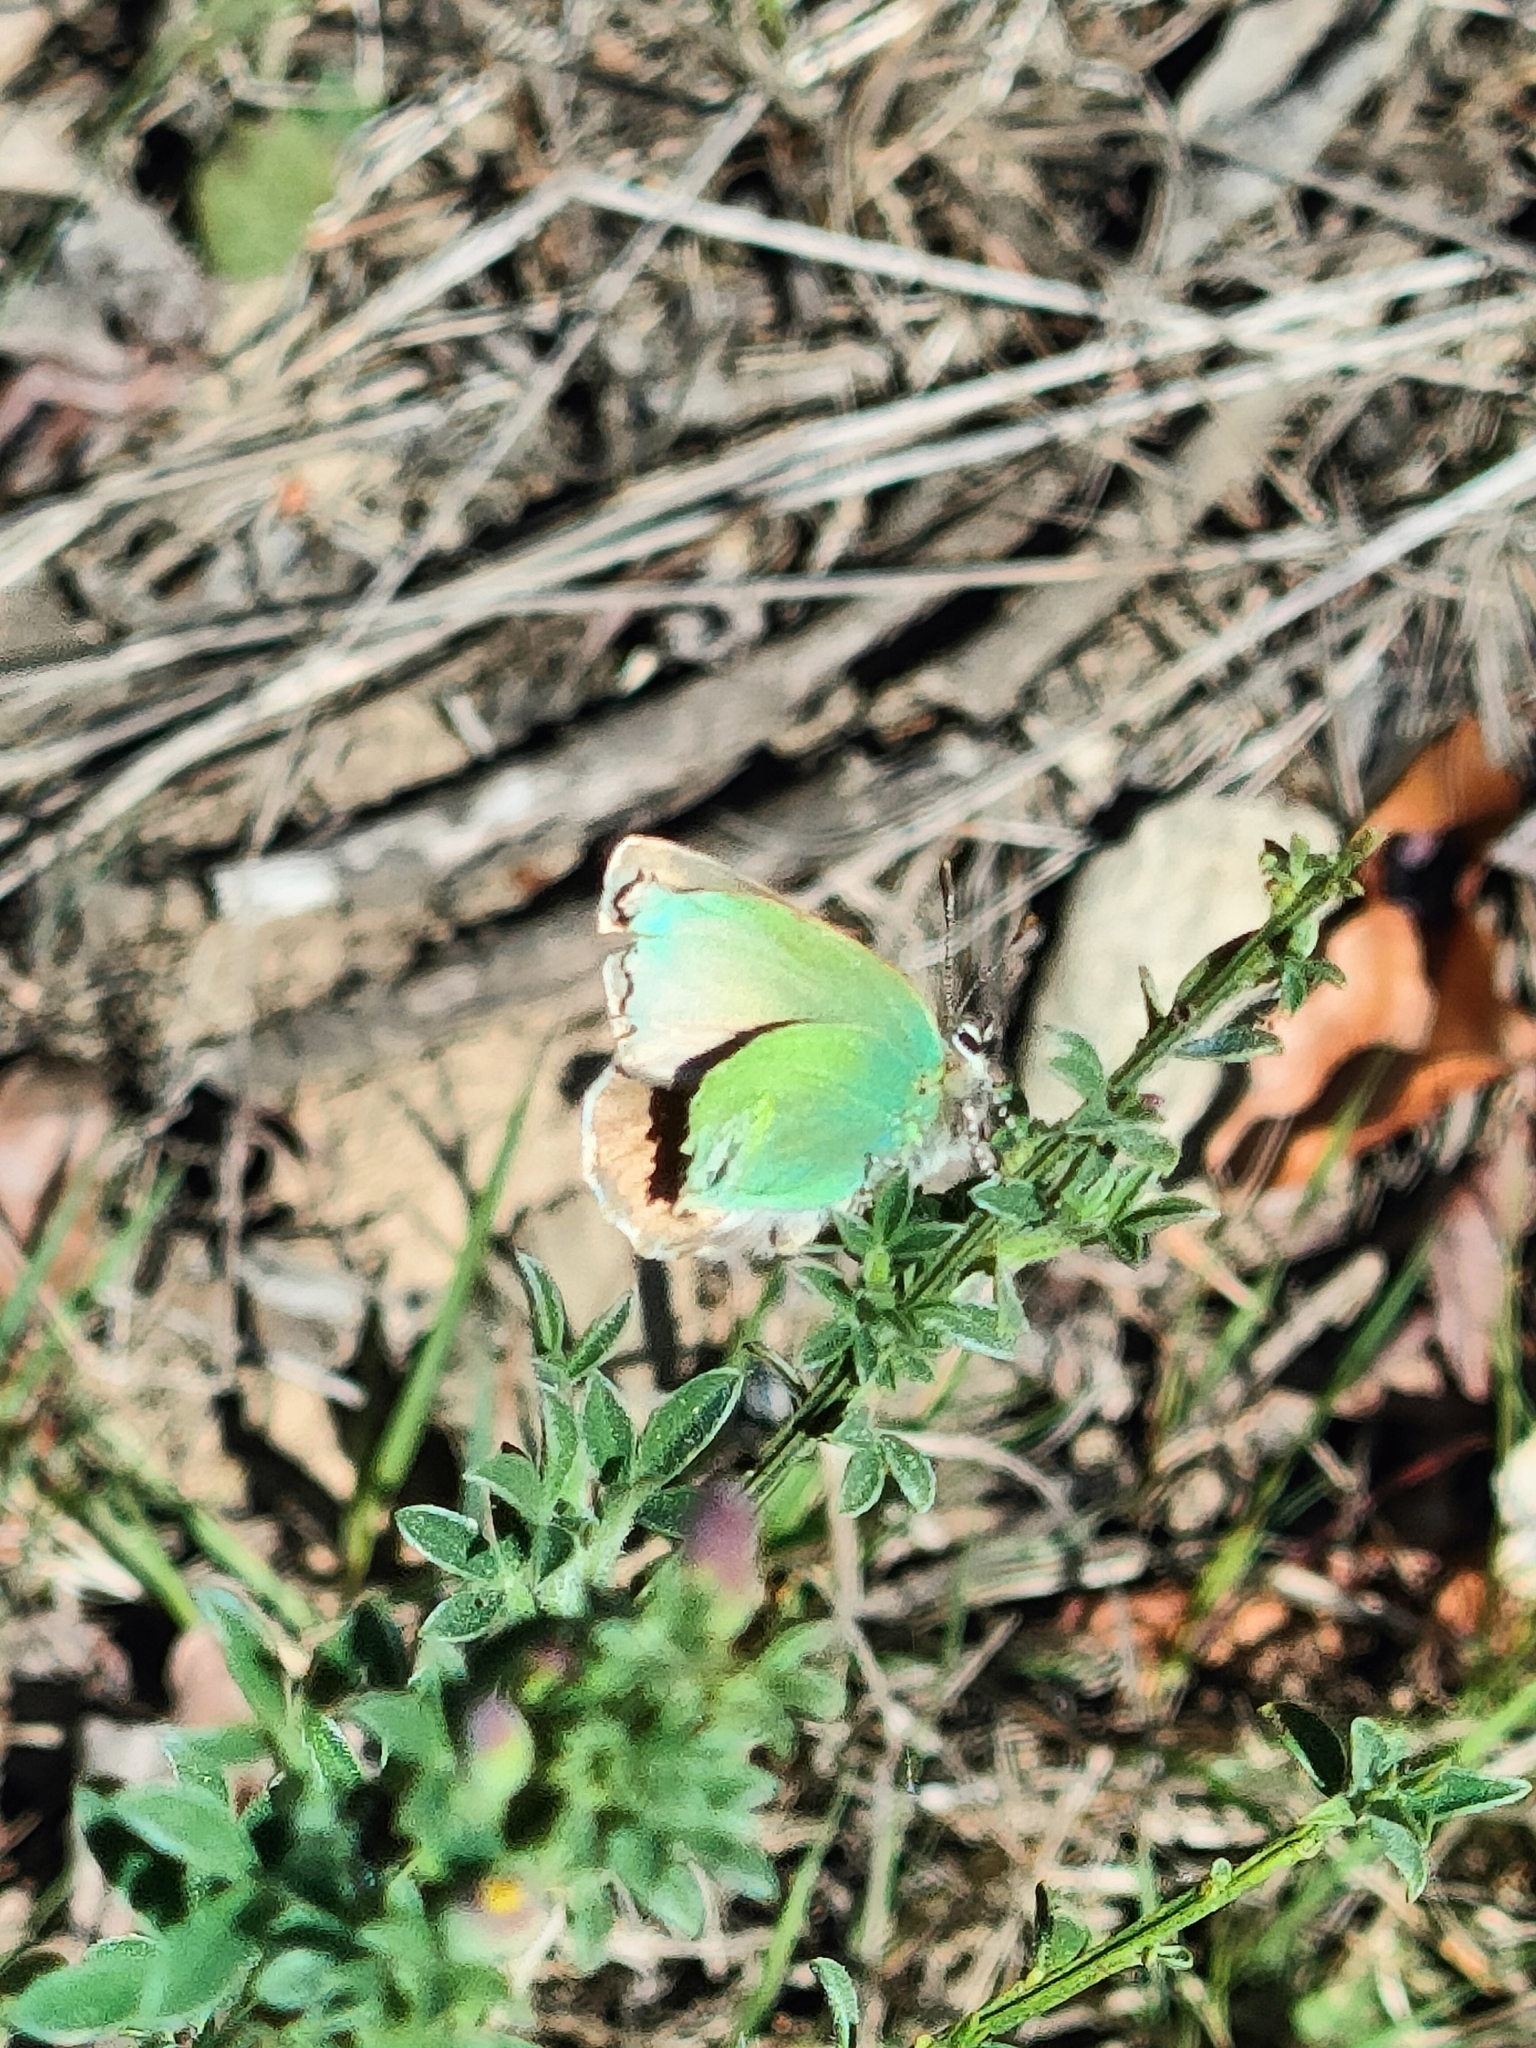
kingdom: Animalia
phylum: Arthropoda
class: Insecta
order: Lepidoptera
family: Lycaenidae
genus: Callophrys
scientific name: Callophrys rubi
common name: Green hairstreak
